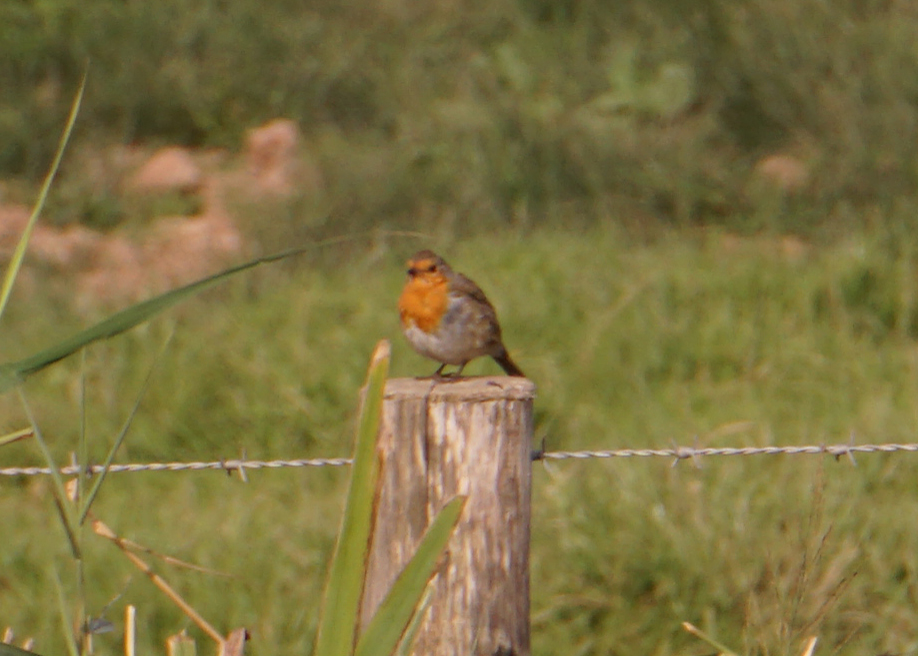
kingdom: Animalia
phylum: Chordata
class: Aves
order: Passeriformes
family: Muscicapidae
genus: Erithacus
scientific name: Erithacus rubecula
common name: European robin
